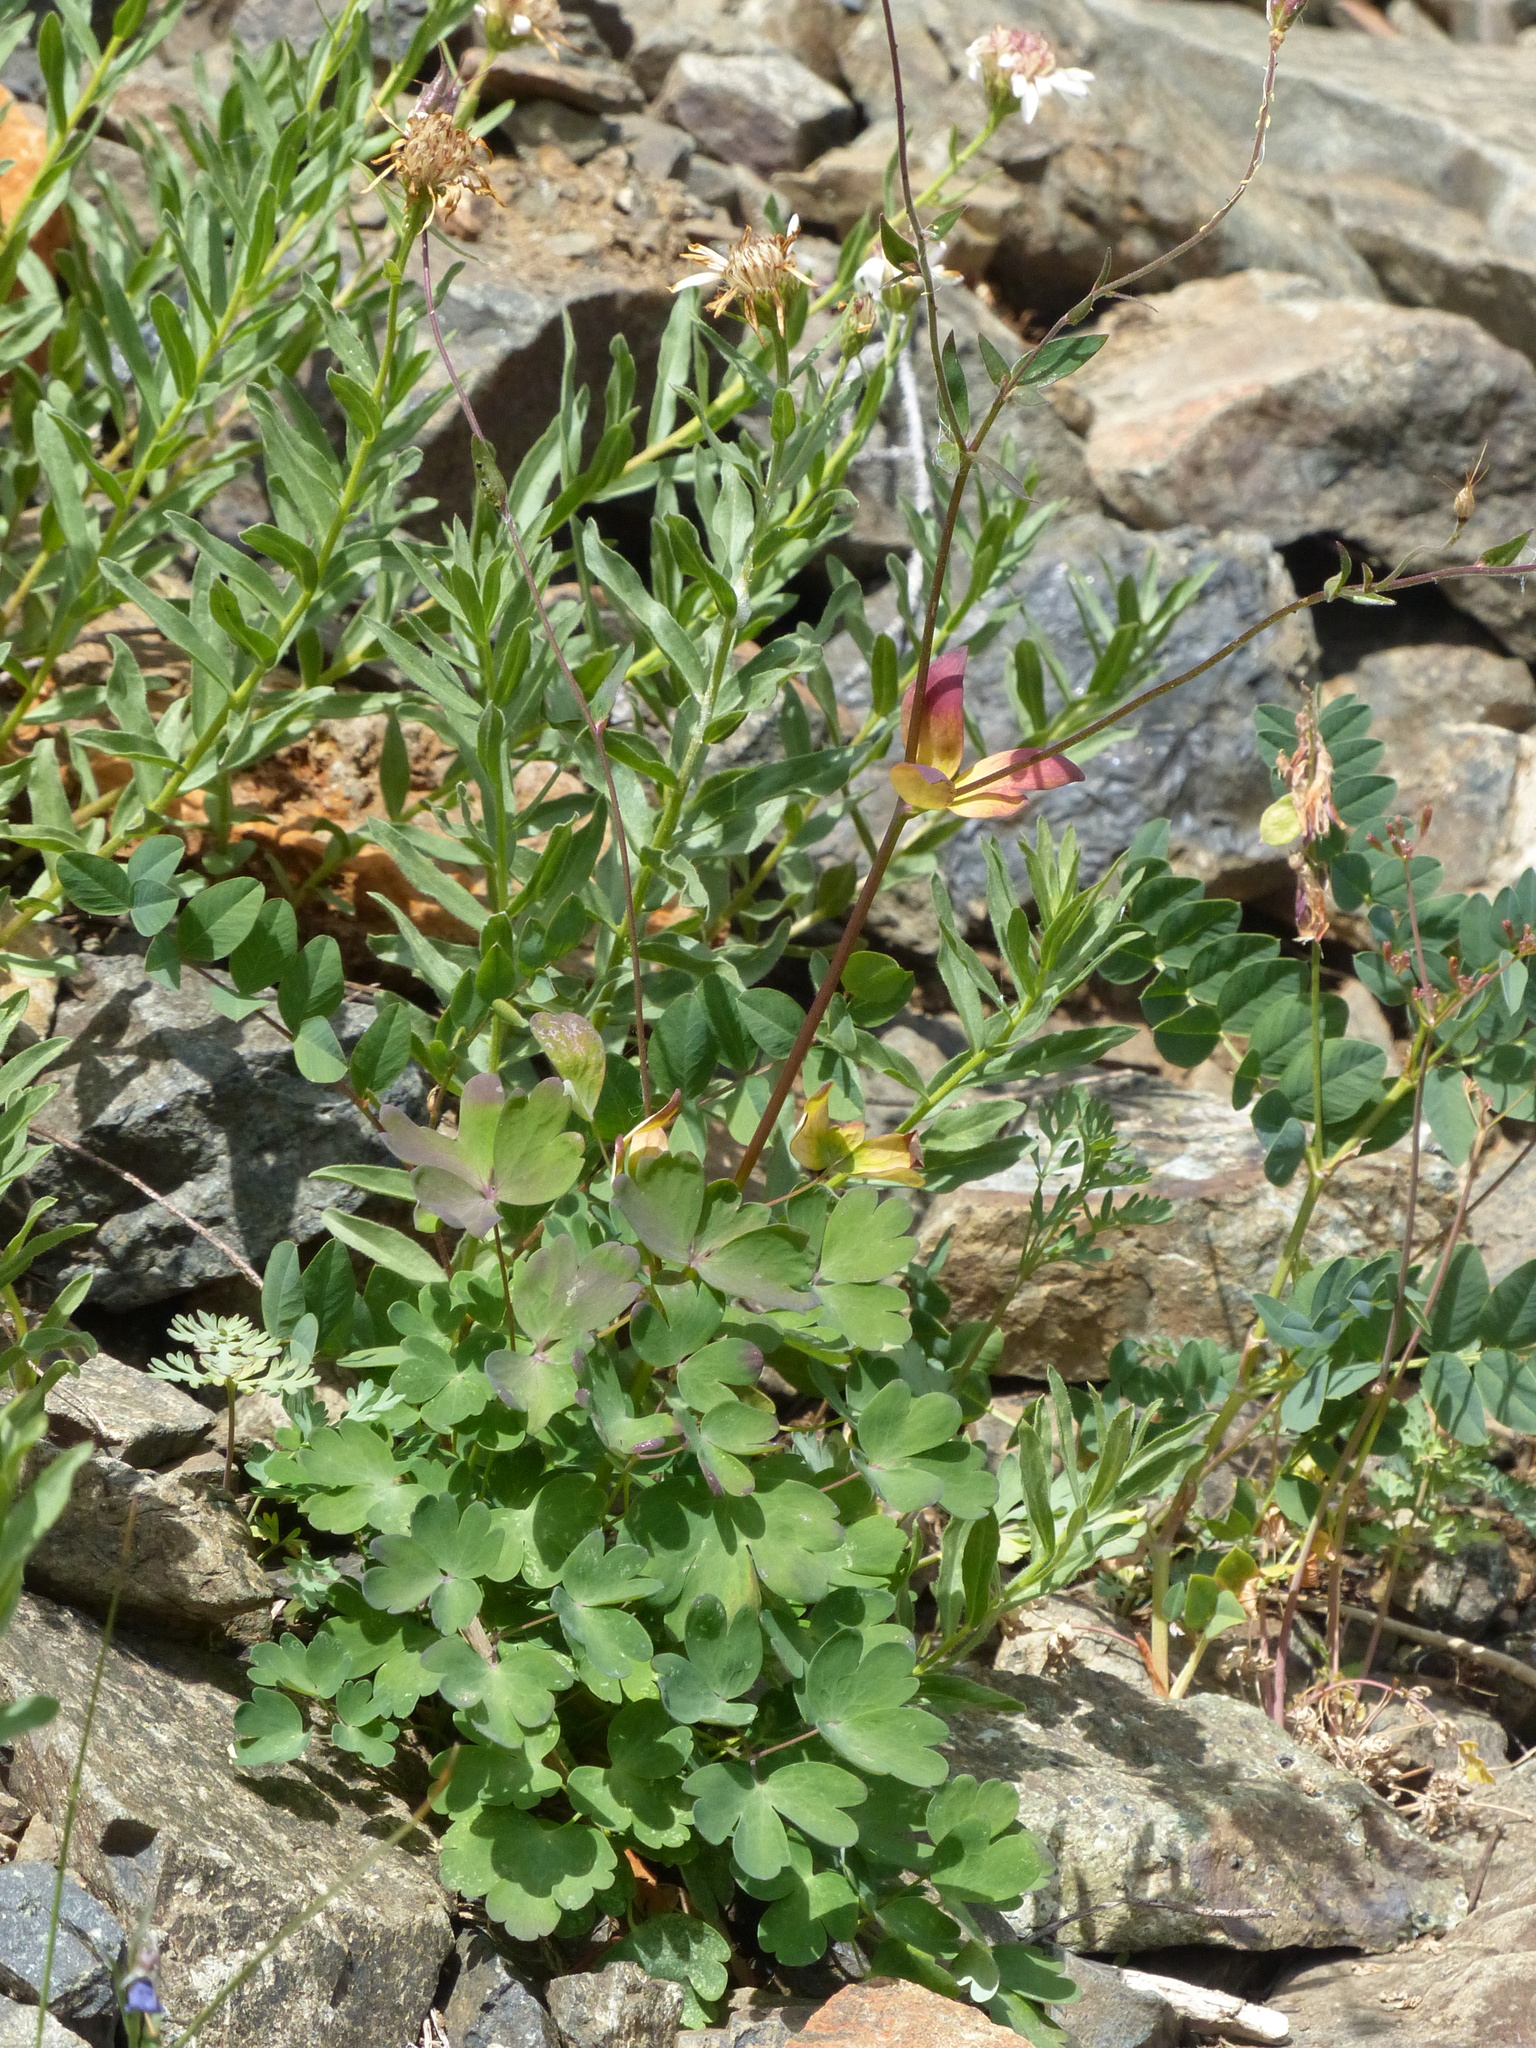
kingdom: Plantae
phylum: Tracheophyta
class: Magnoliopsida
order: Ranunculales
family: Ranunculaceae
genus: Aquilegia
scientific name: Aquilegia formosa
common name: Sitka columbine
